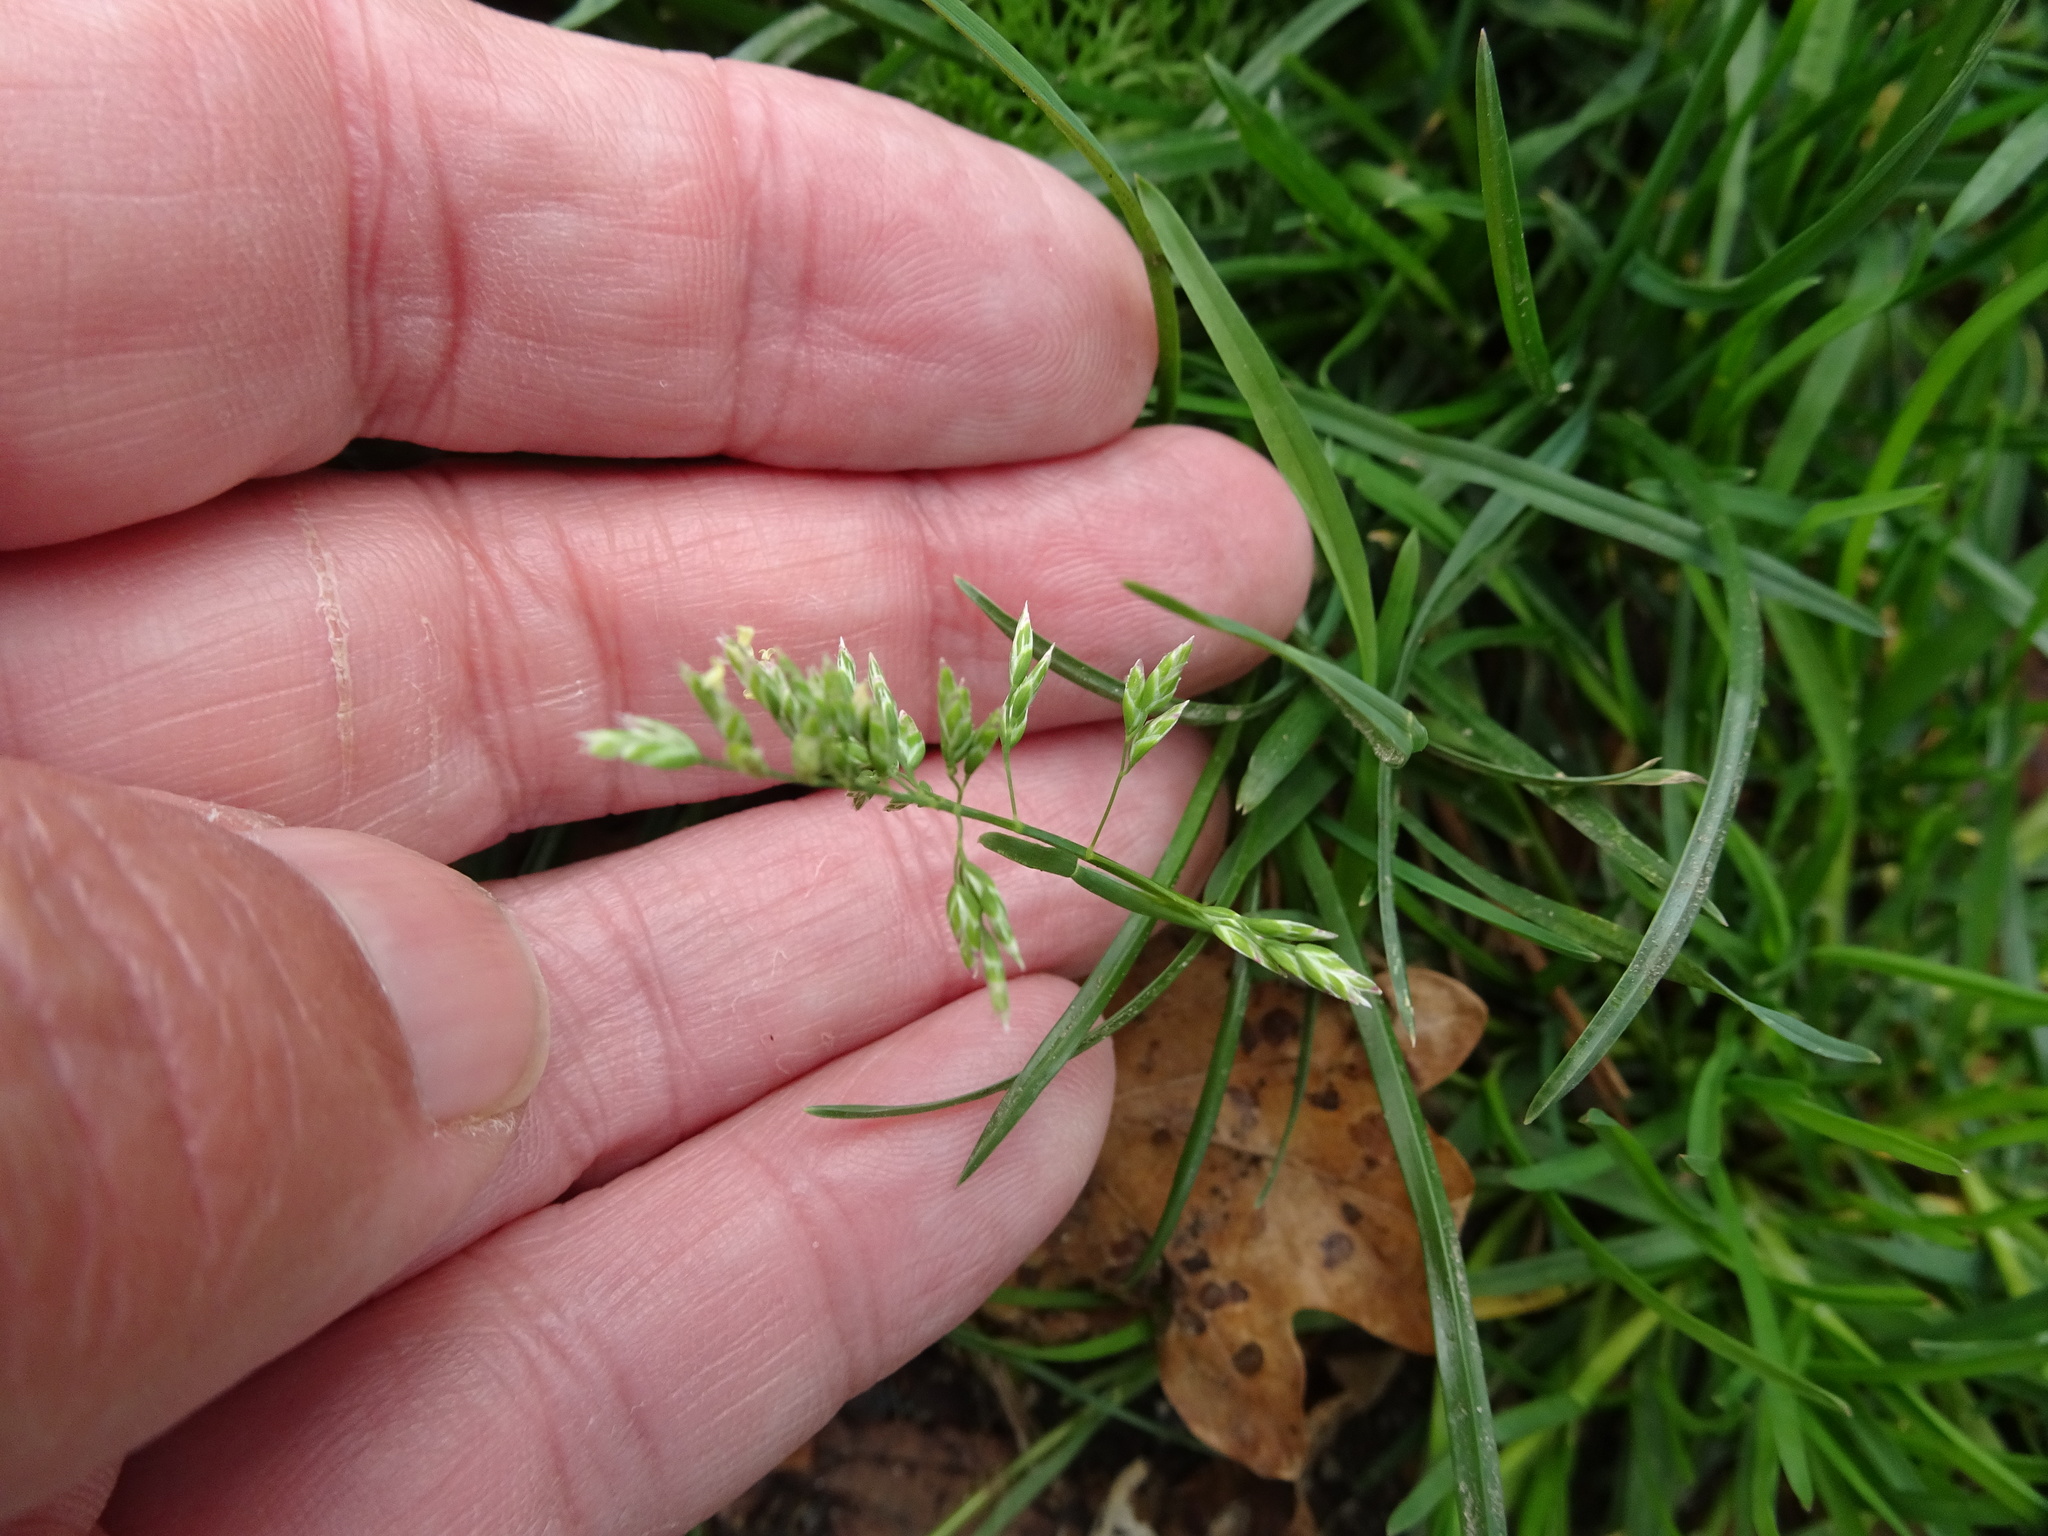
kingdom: Plantae
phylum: Tracheophyta
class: Liliopsida
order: Poales
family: Poaceae
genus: Poa
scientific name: Poa annua
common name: Annual bluegrass
